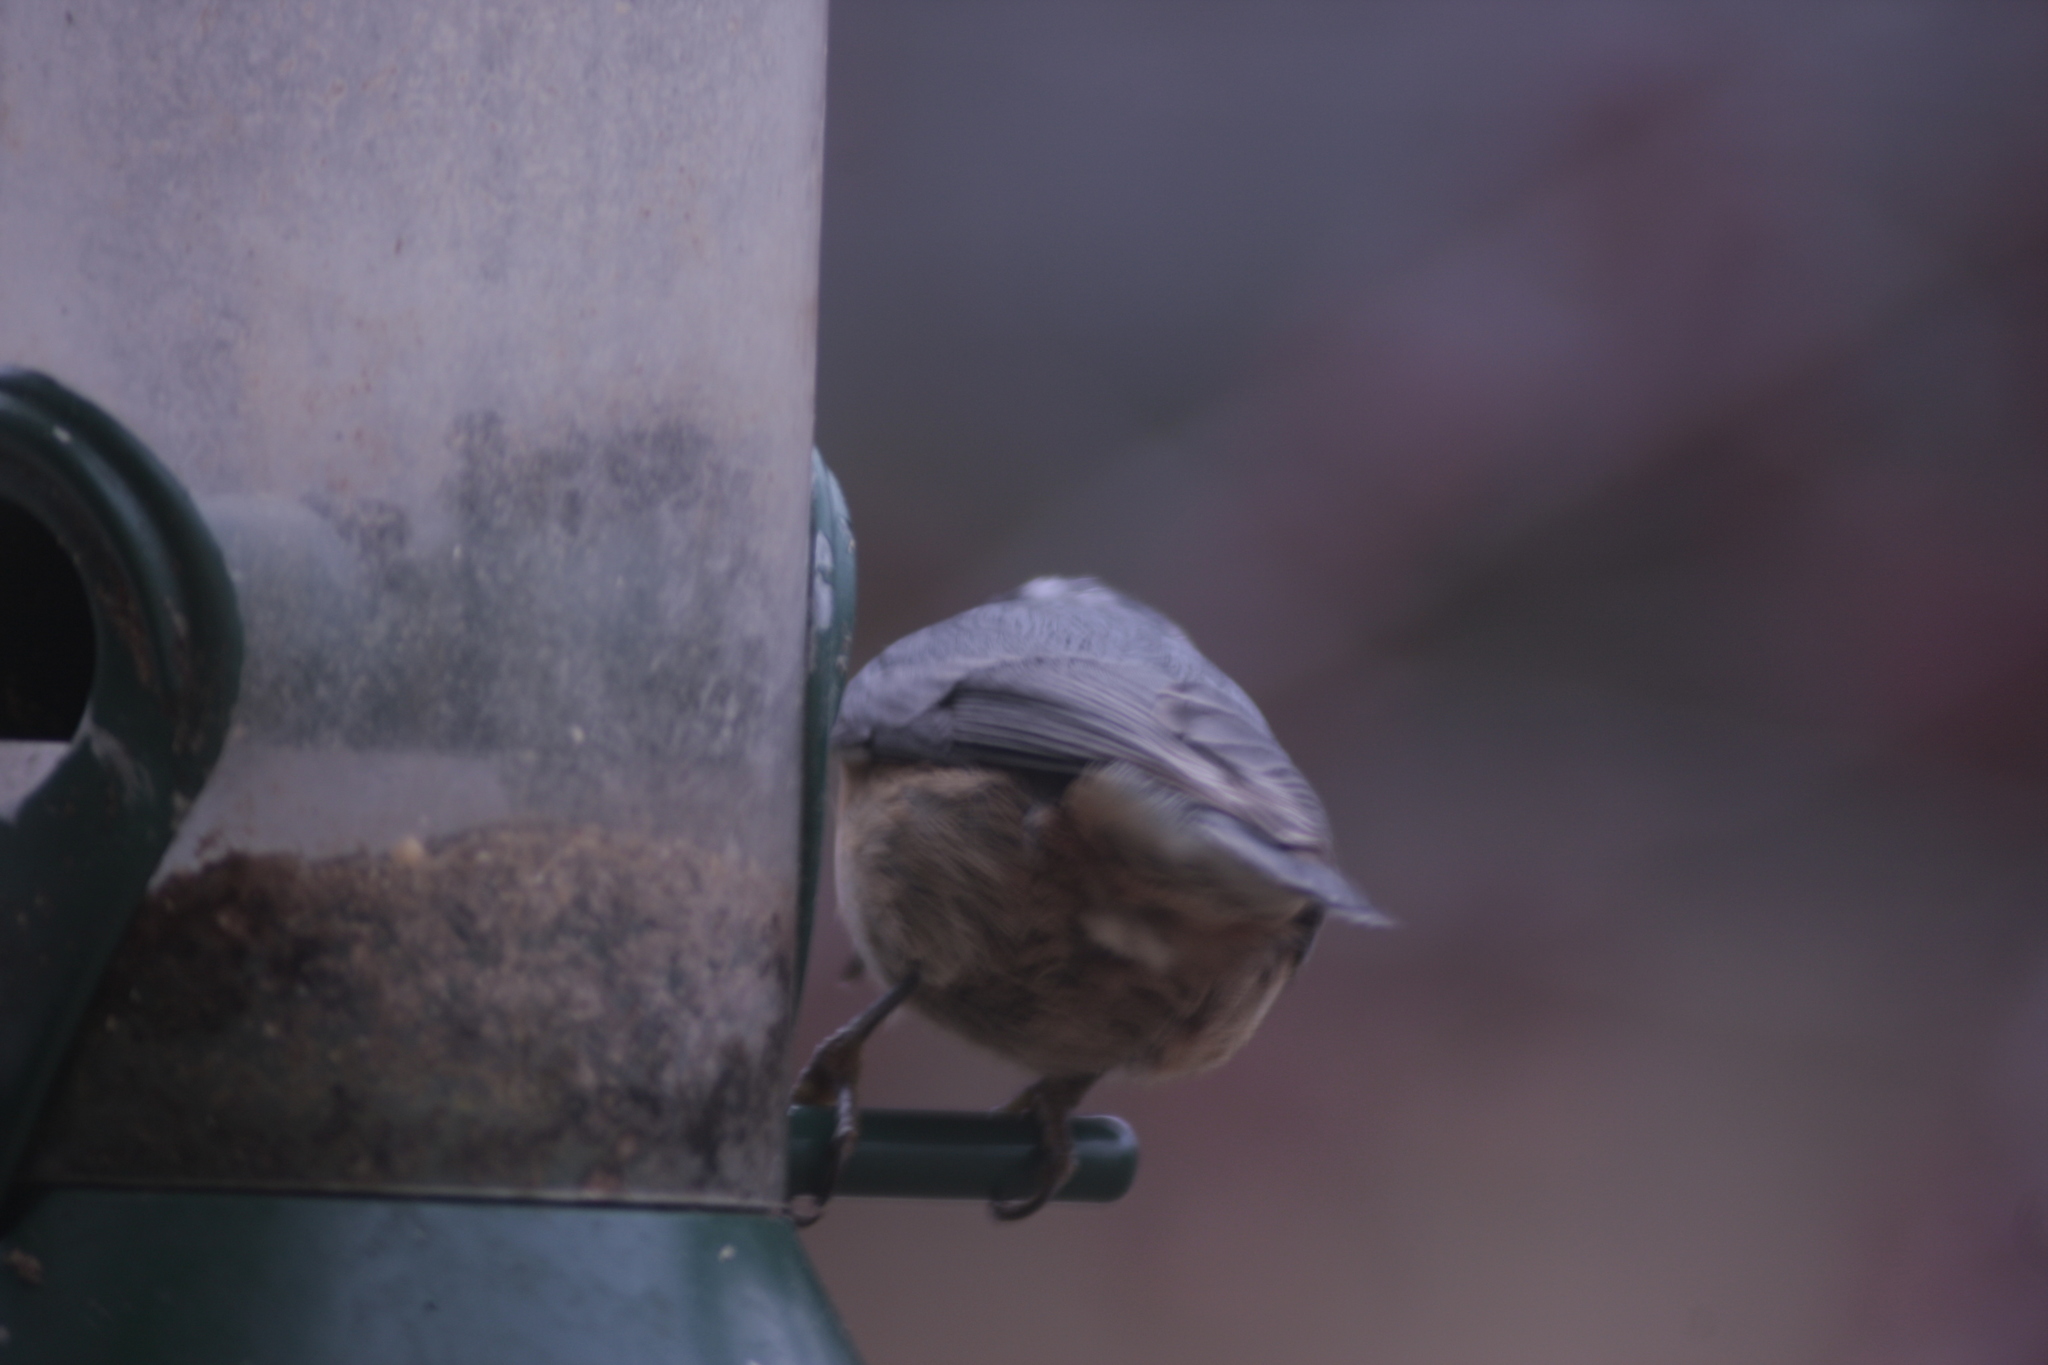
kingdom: Animalia
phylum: Chordata
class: Aves
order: Passeriformes
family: Sittidae
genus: Sitta
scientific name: Sitta canadensis
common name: Red-breasted nuthatch
